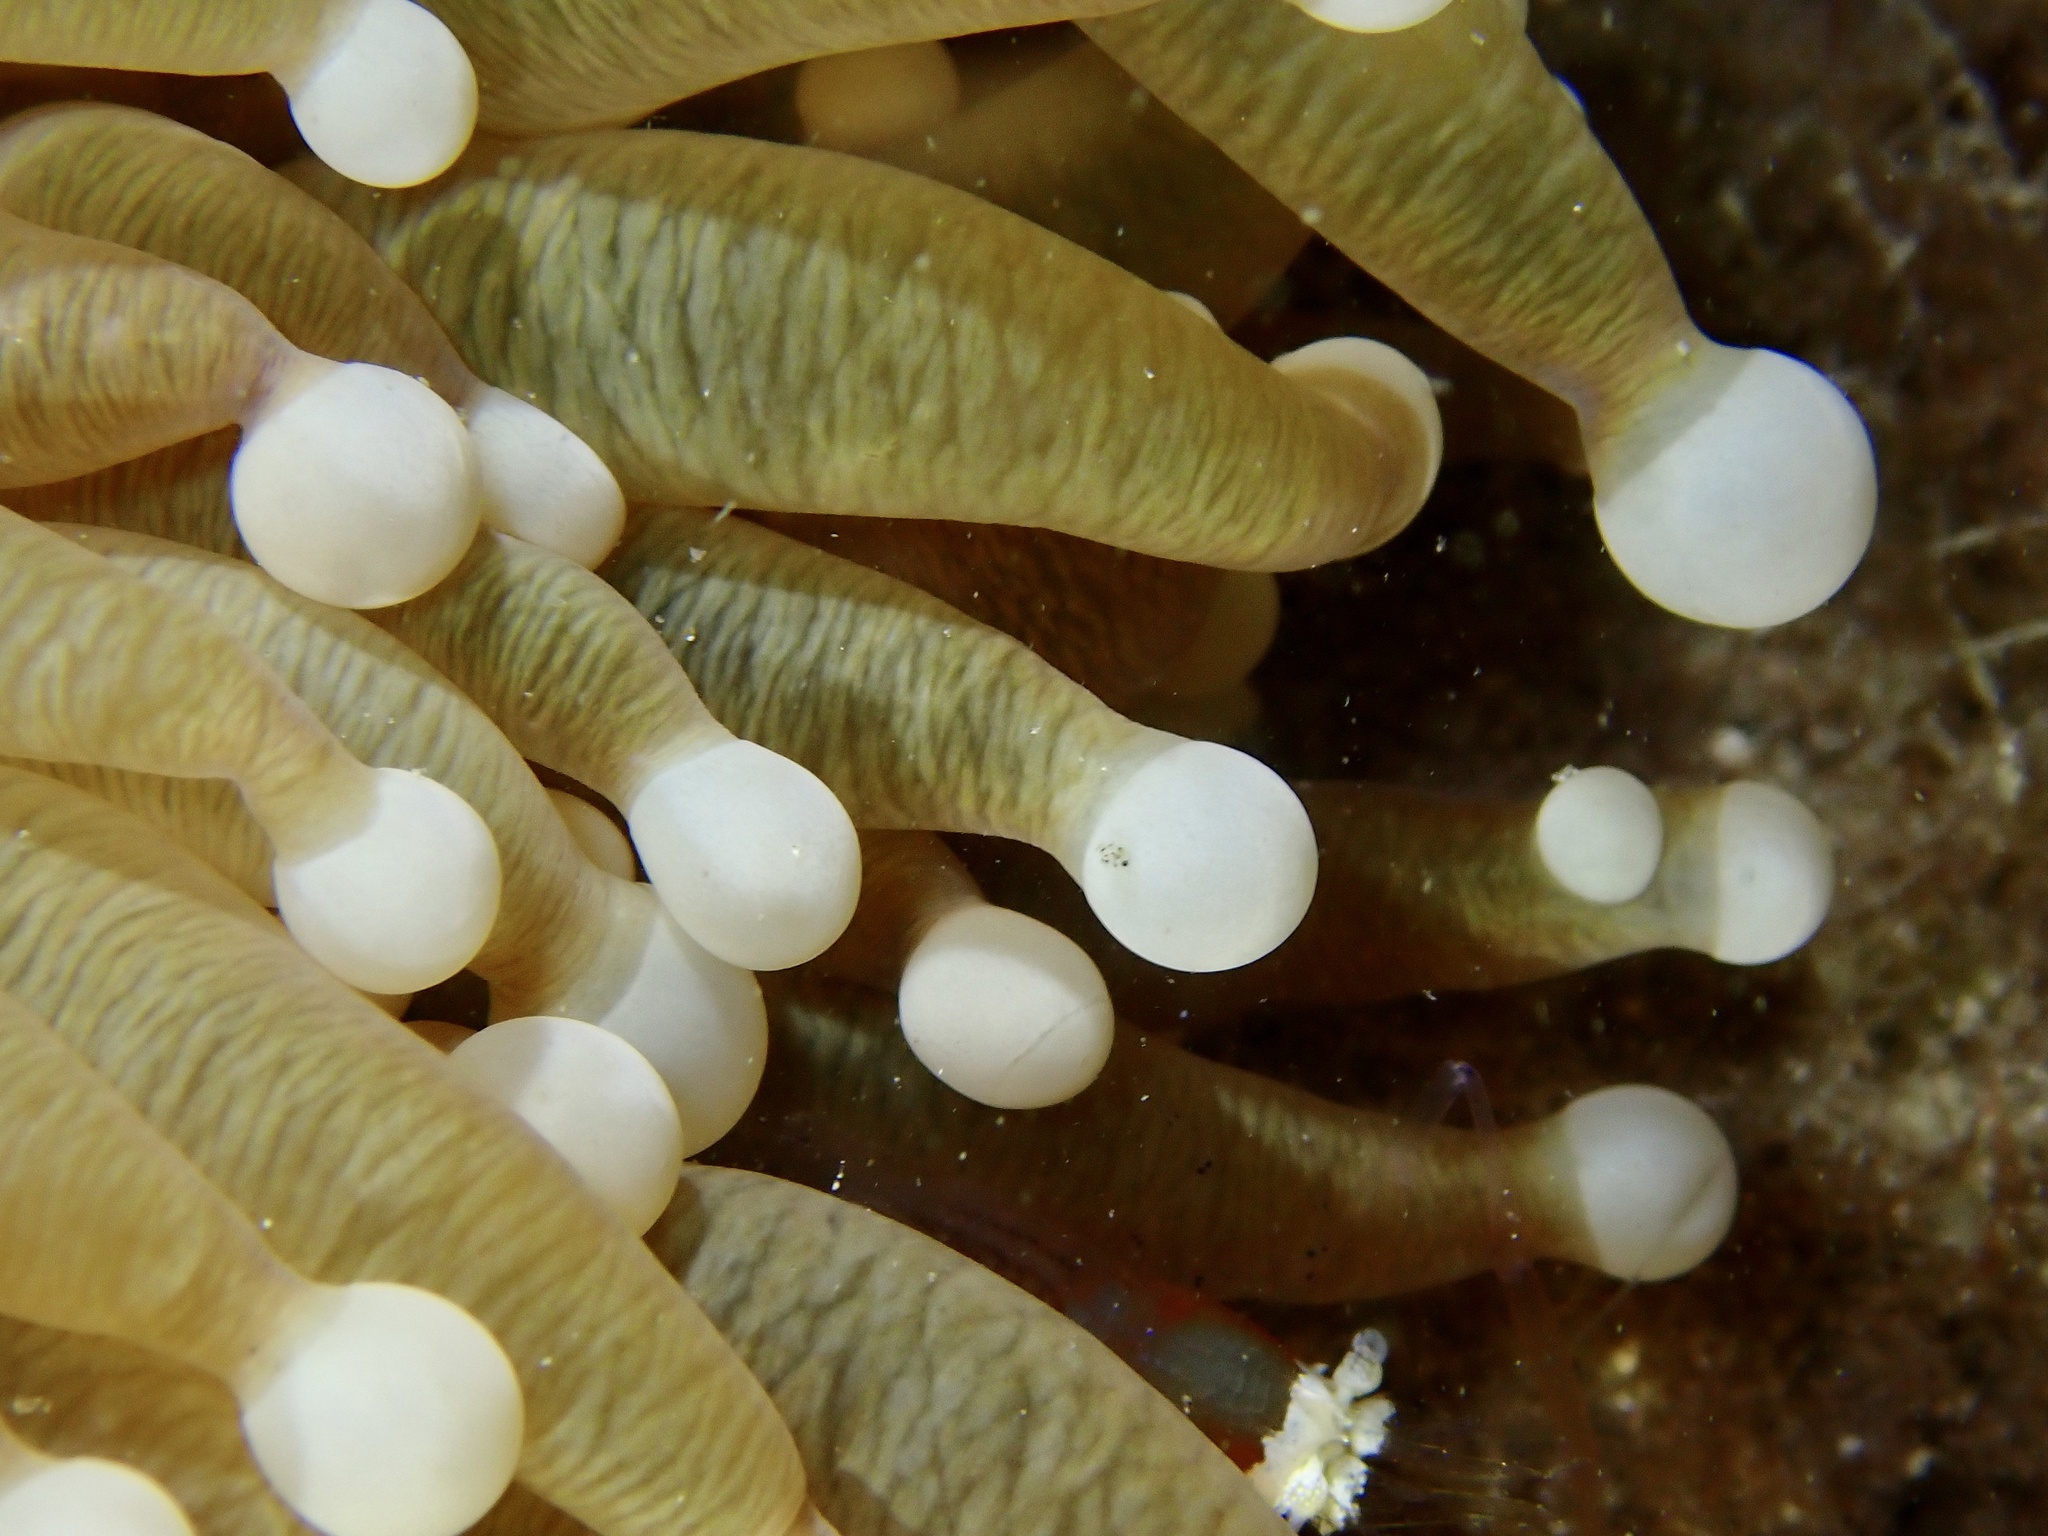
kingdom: Animalia
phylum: Cnidaria
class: Anthozoa
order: Scleractinia
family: Fungiidae
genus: Heliofungia
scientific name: Heliofungia actiniformis
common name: Plate coral
